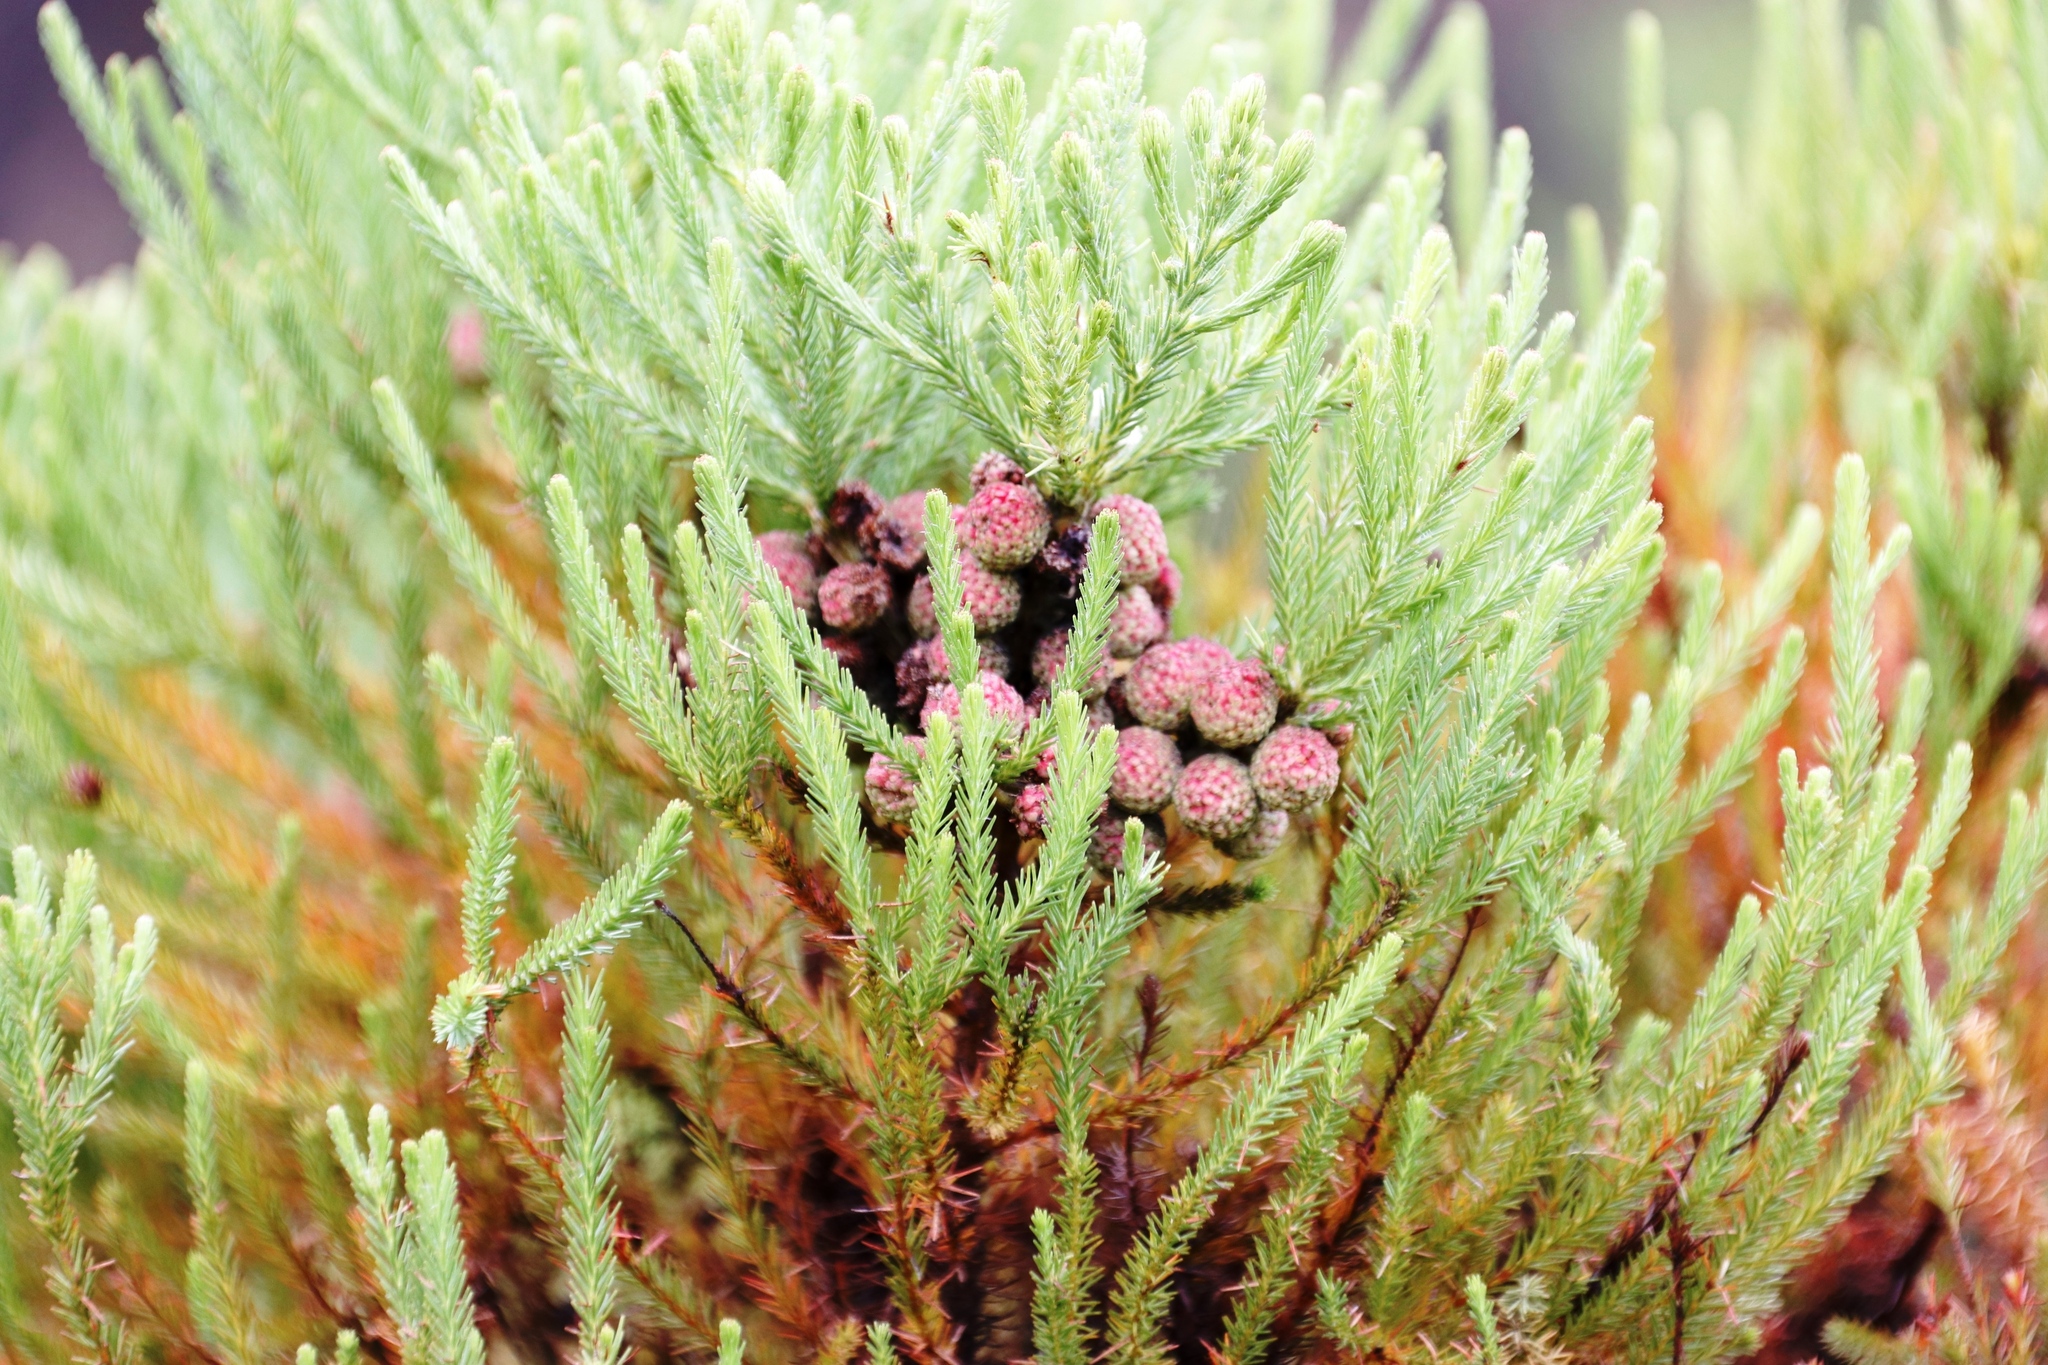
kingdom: Plantae
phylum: Tracheophyta
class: Magnoliopsida
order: Bruniales
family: Bruniaceae
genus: Berzelia
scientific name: Berzelia lanuginosa
